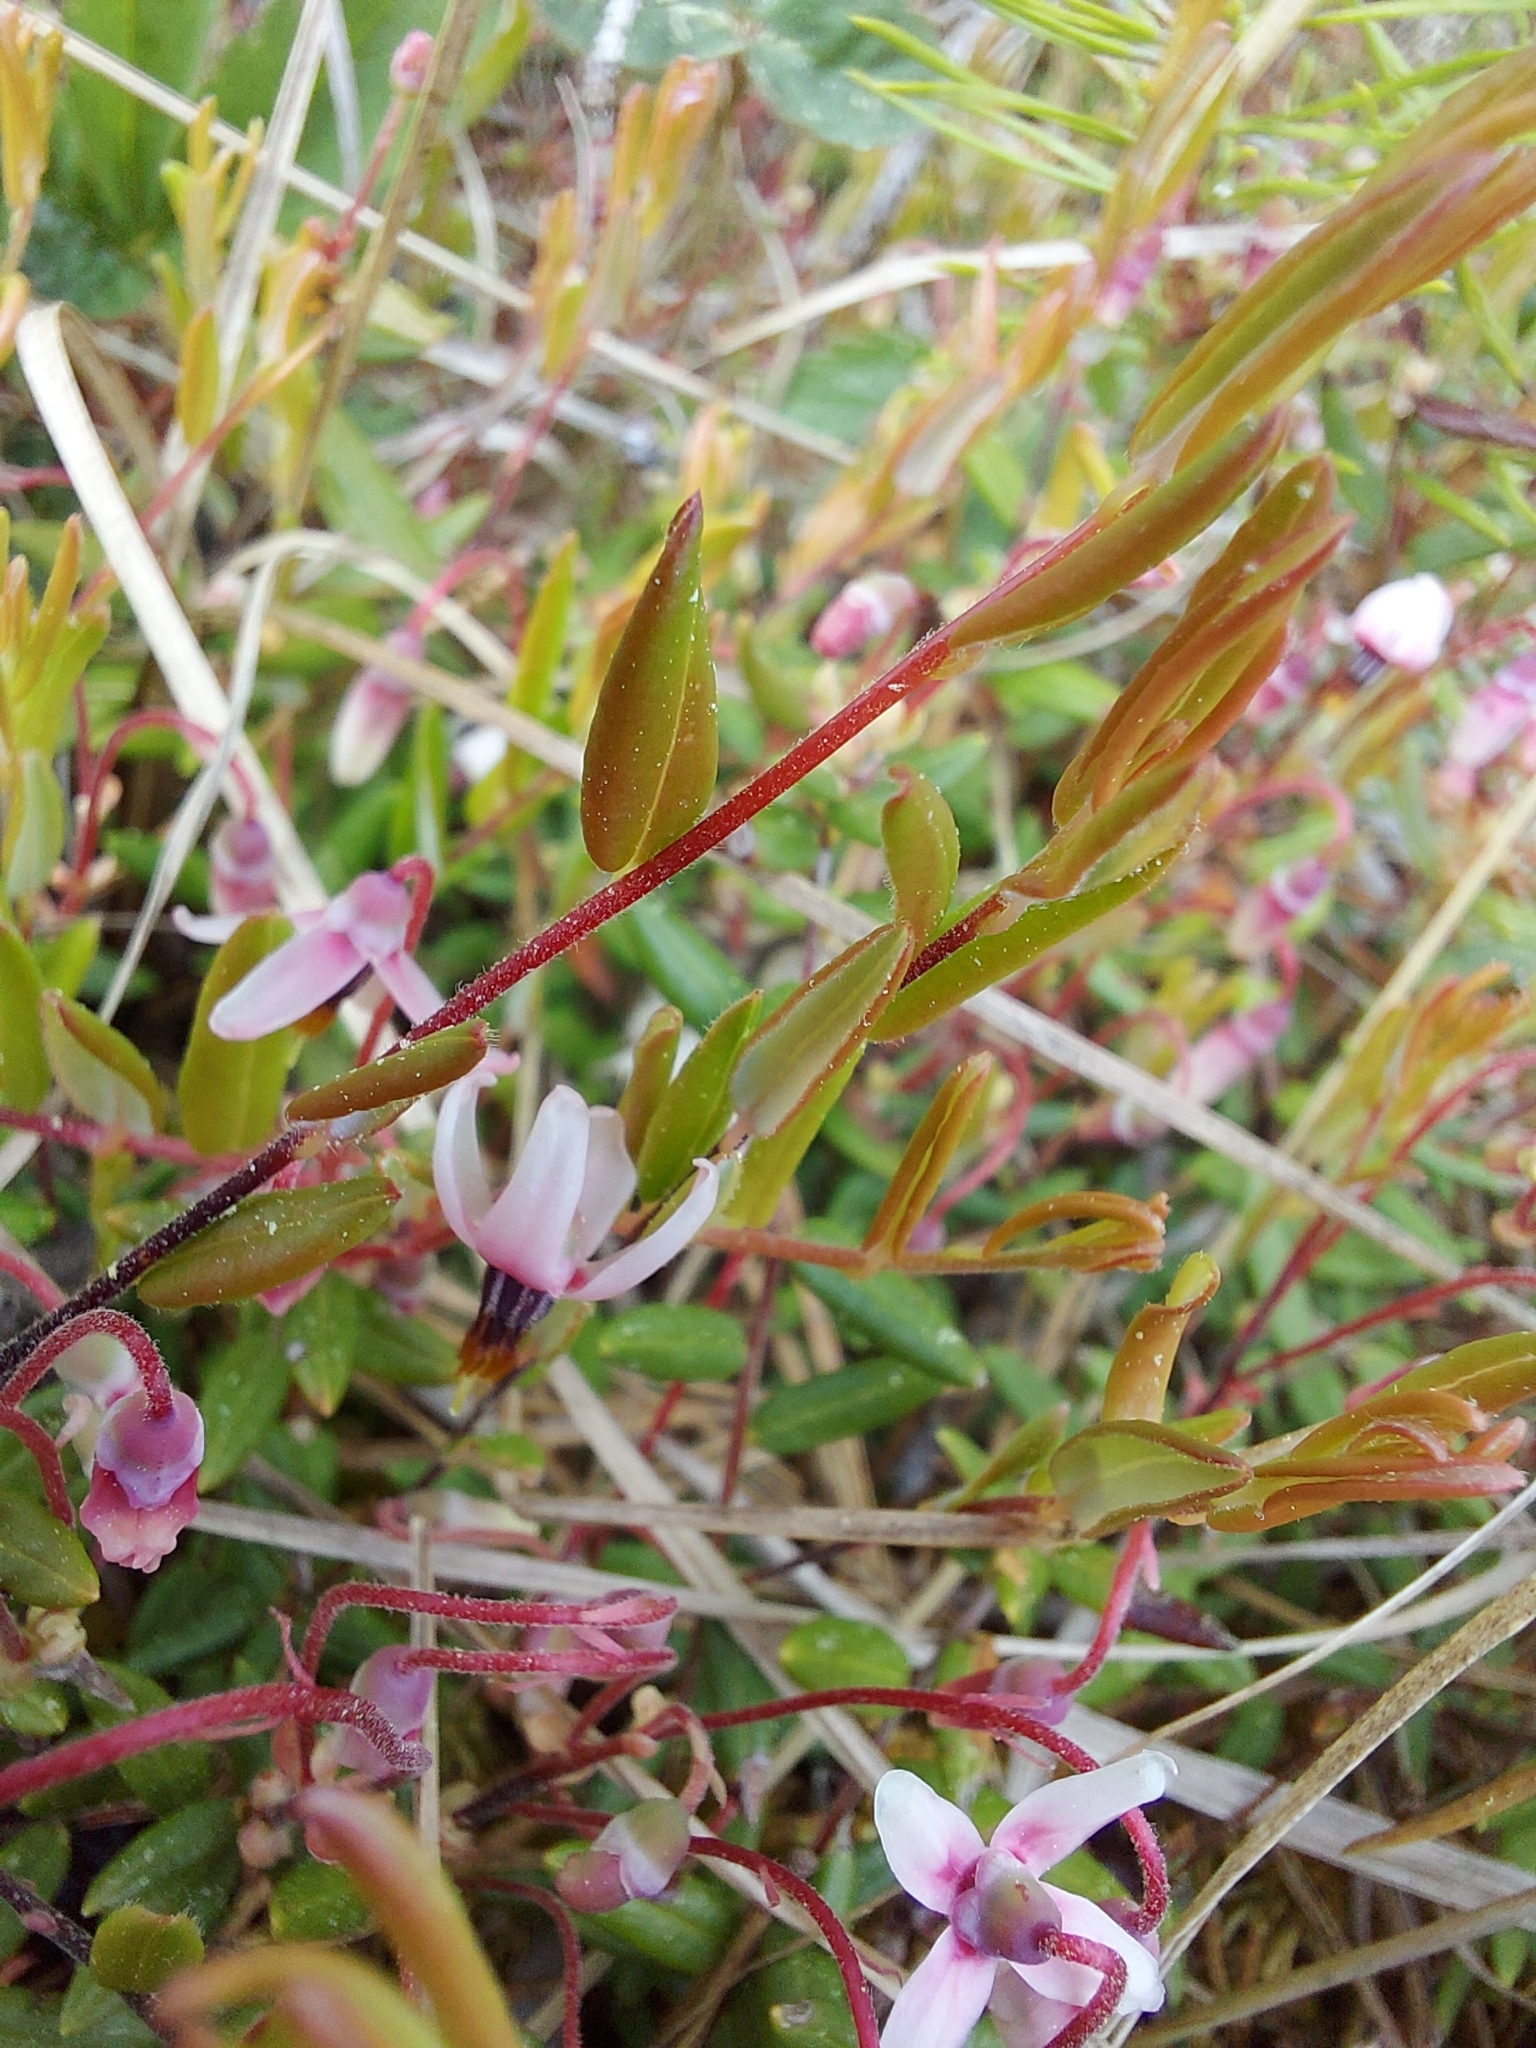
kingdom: Plantae
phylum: Tracheophyta
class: Magnoliopsida
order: Ericales
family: Ericaceae
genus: Vaccinium
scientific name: Vaccinium oxycoccos
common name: Cranberry
